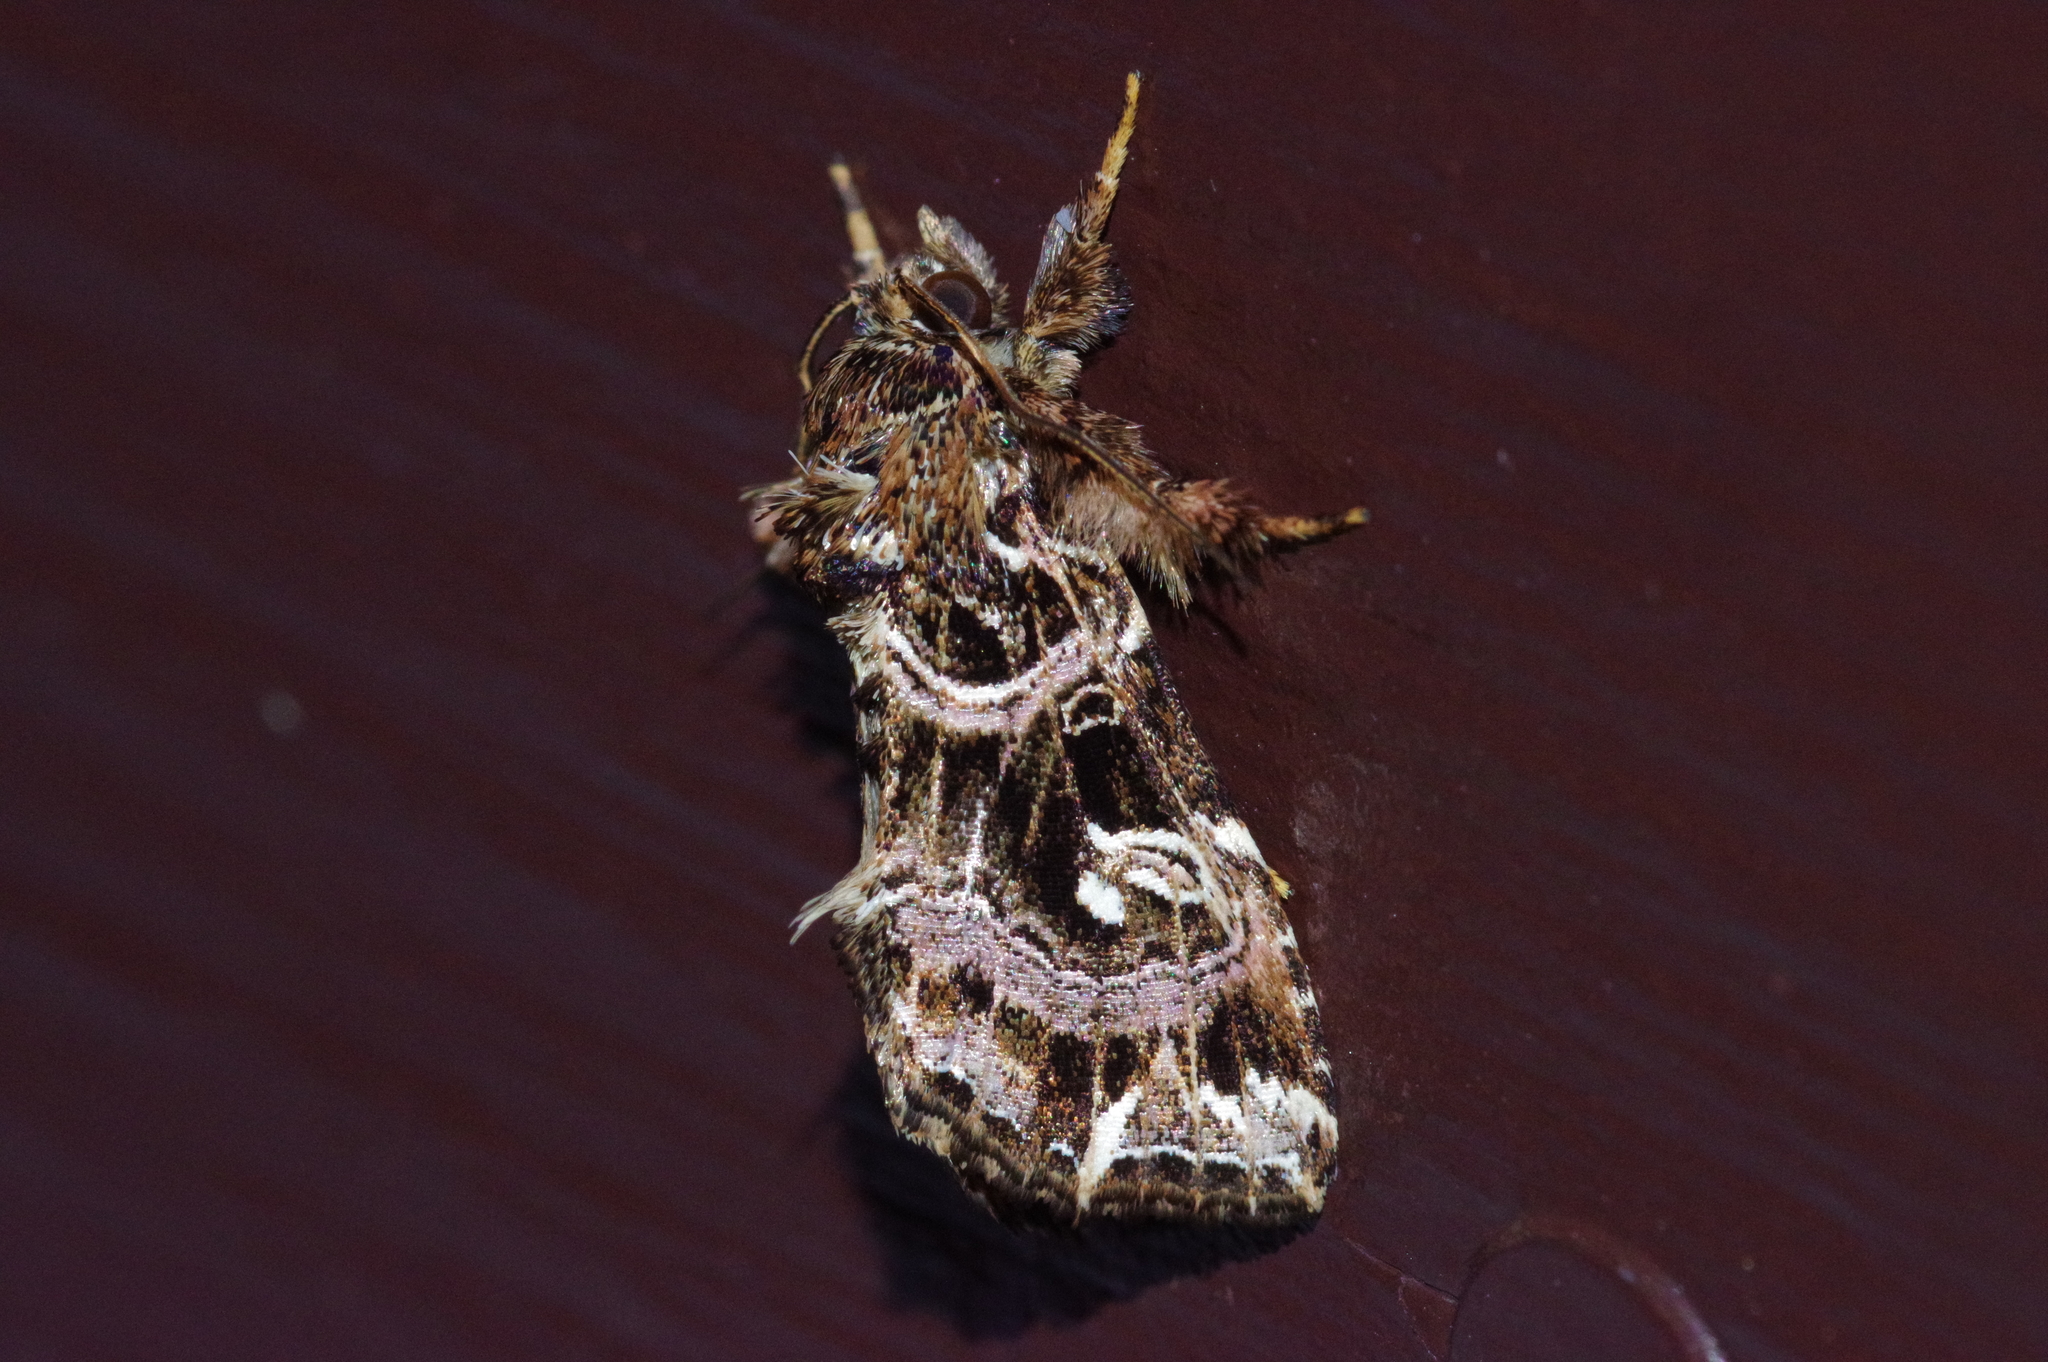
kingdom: Animalia
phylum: Arthropoda
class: Insecta
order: Lepidoptera
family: Noctuidae
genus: Callopistria
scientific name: Callopistria duplicans
